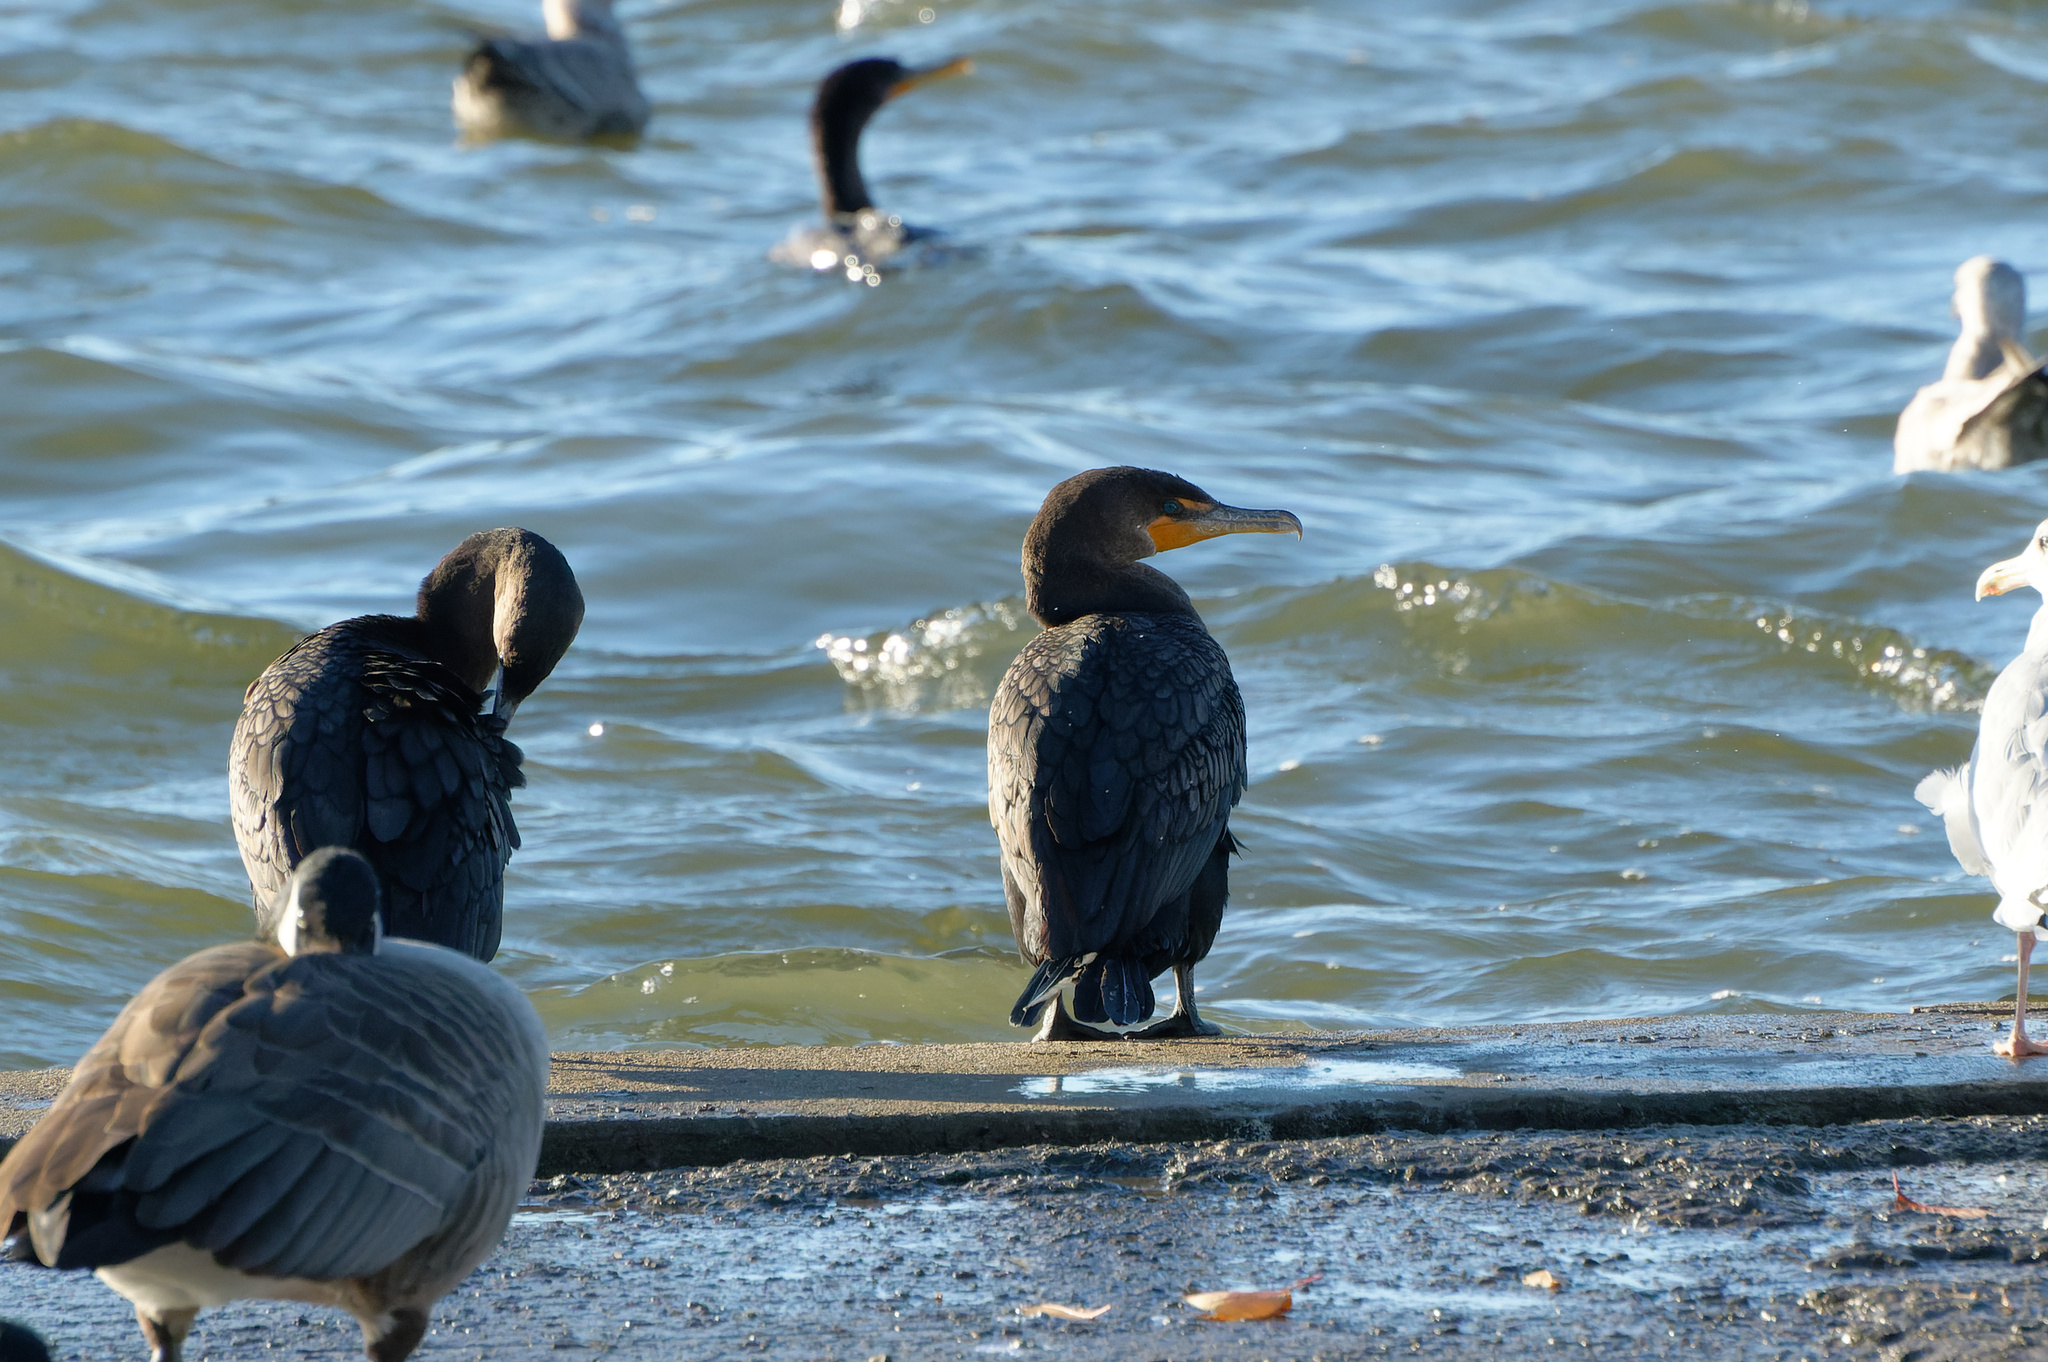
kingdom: Animalia
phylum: Chordata
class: Aves
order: Suliformes
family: Phalacrocoracidae
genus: Phalacrocorax
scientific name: Phalacrocorax auritus
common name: Double-crested cormorant
